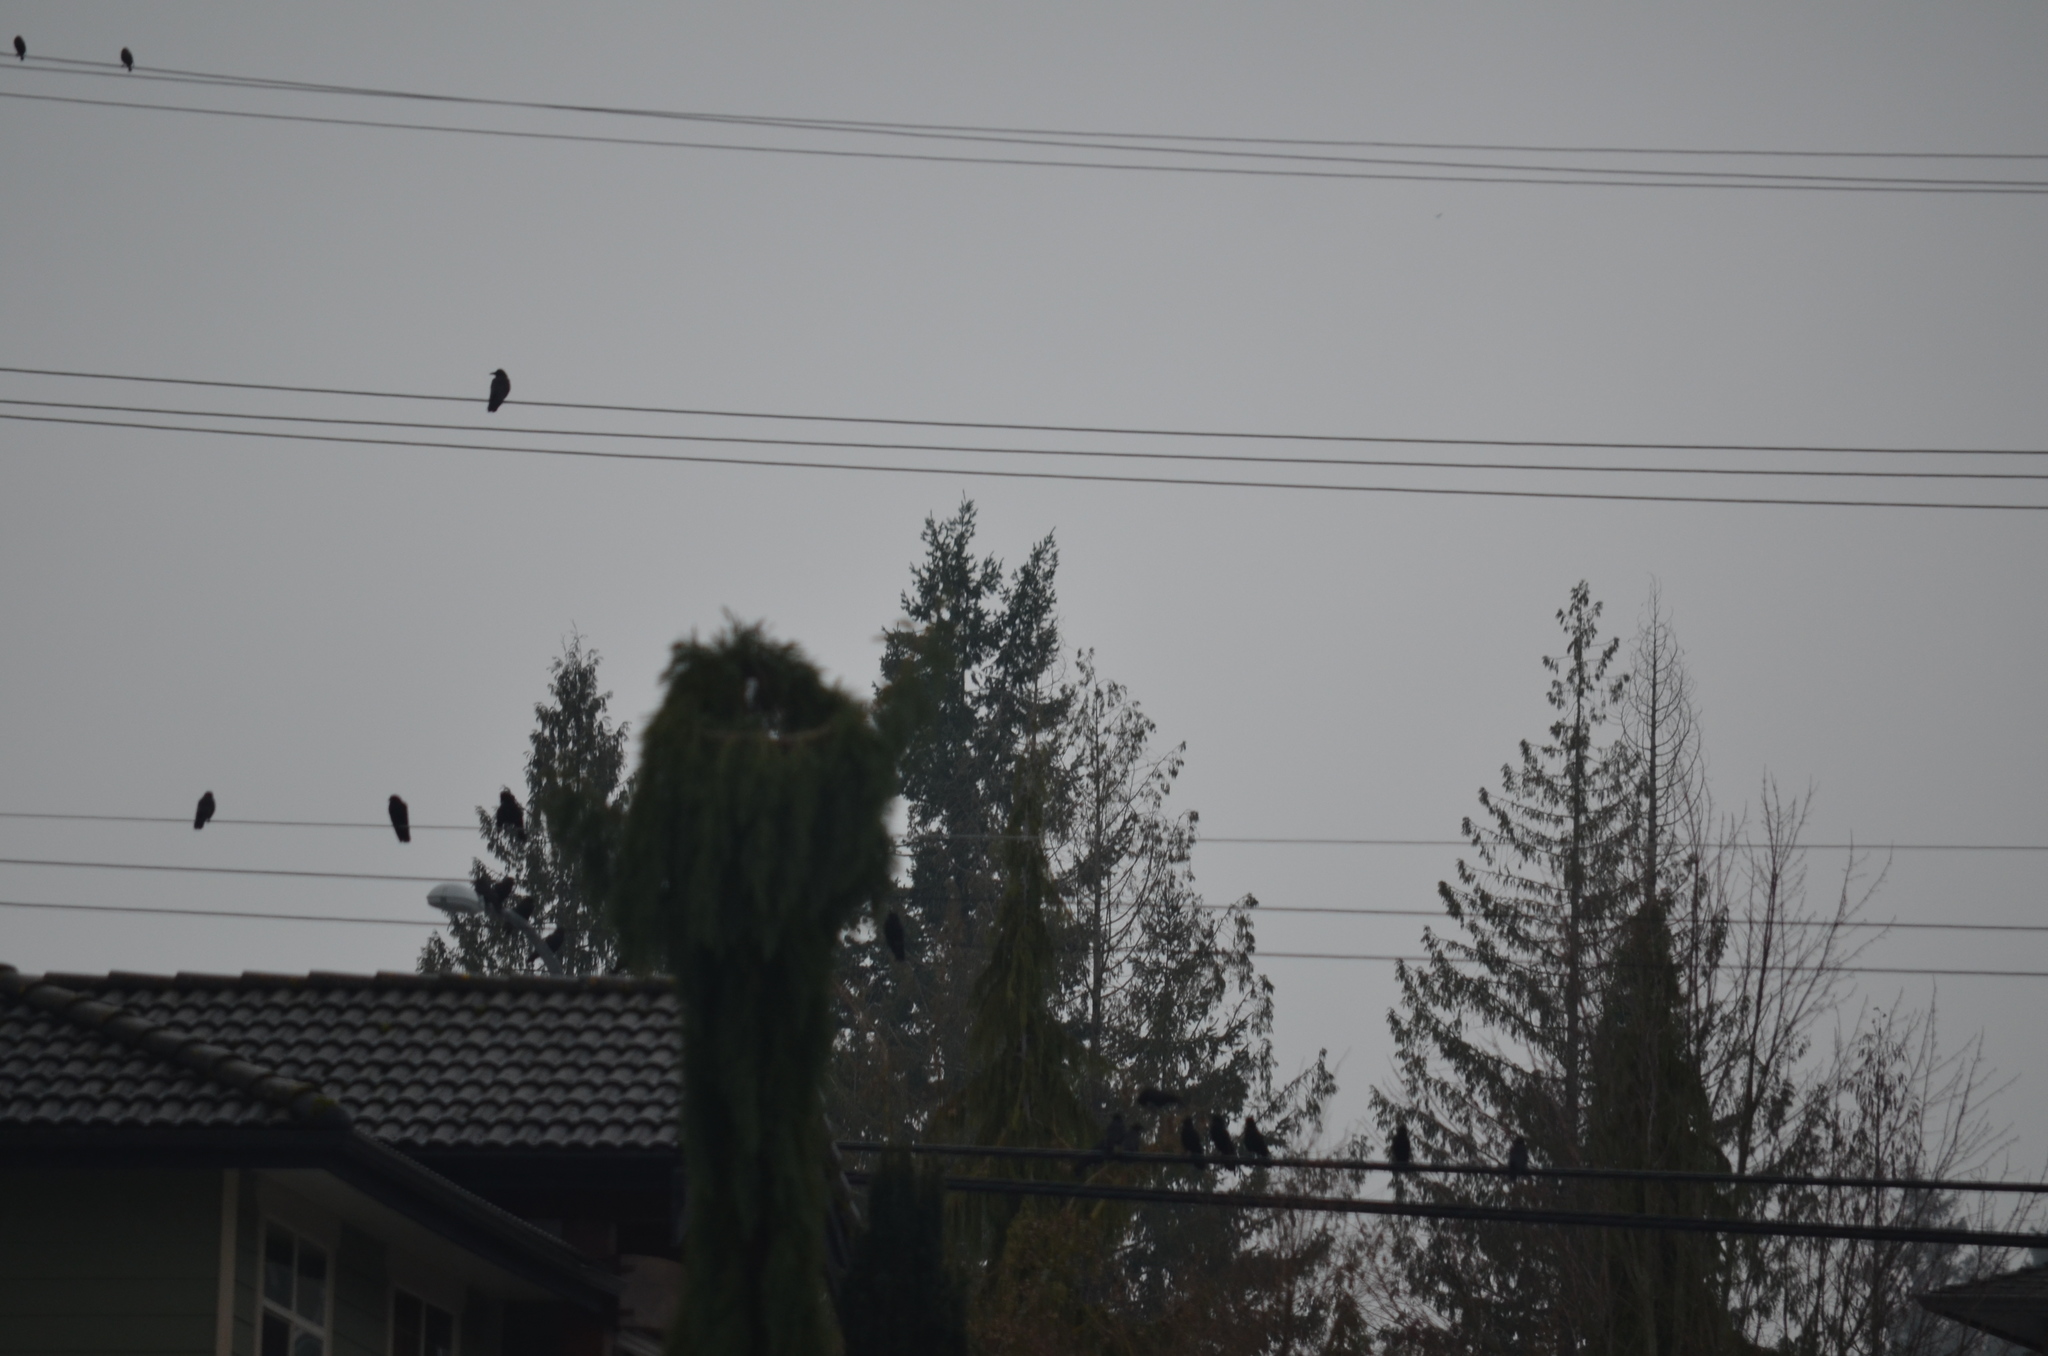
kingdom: Animalia
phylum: Chordata
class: Aves
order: Passeriformes
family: Corvidae
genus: Corvus
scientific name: Corvus brachyrhynchos
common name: American crow
